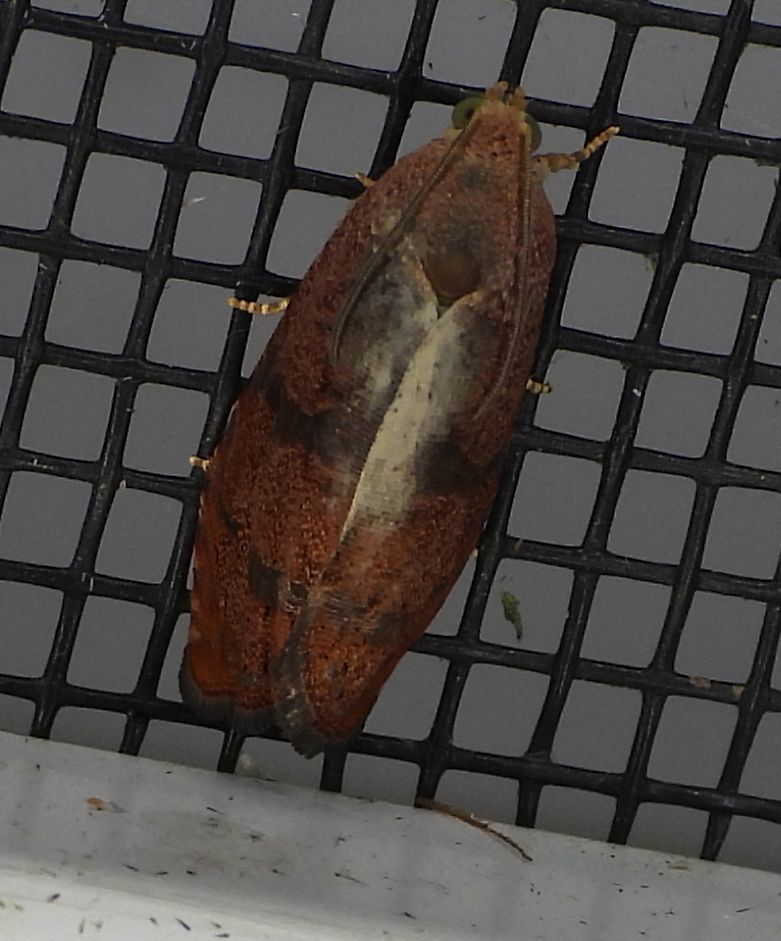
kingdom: Animalia
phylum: Arthropoda
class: Insecta
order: Lepidoptera
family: Tortricidae
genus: Cydia
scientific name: Cydia latiferreana
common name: Filbertworm moth
